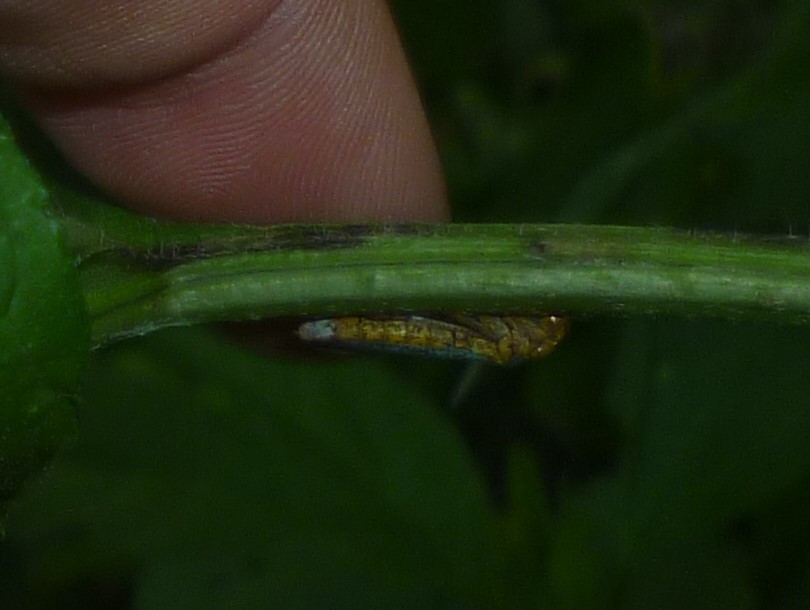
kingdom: Animalia
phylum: Arthropoda
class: Insecta
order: Hemiptera
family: Cicadellidae
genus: Oncometopia
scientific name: Oncometopia orbona
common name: Broad-headed sharpshooter
